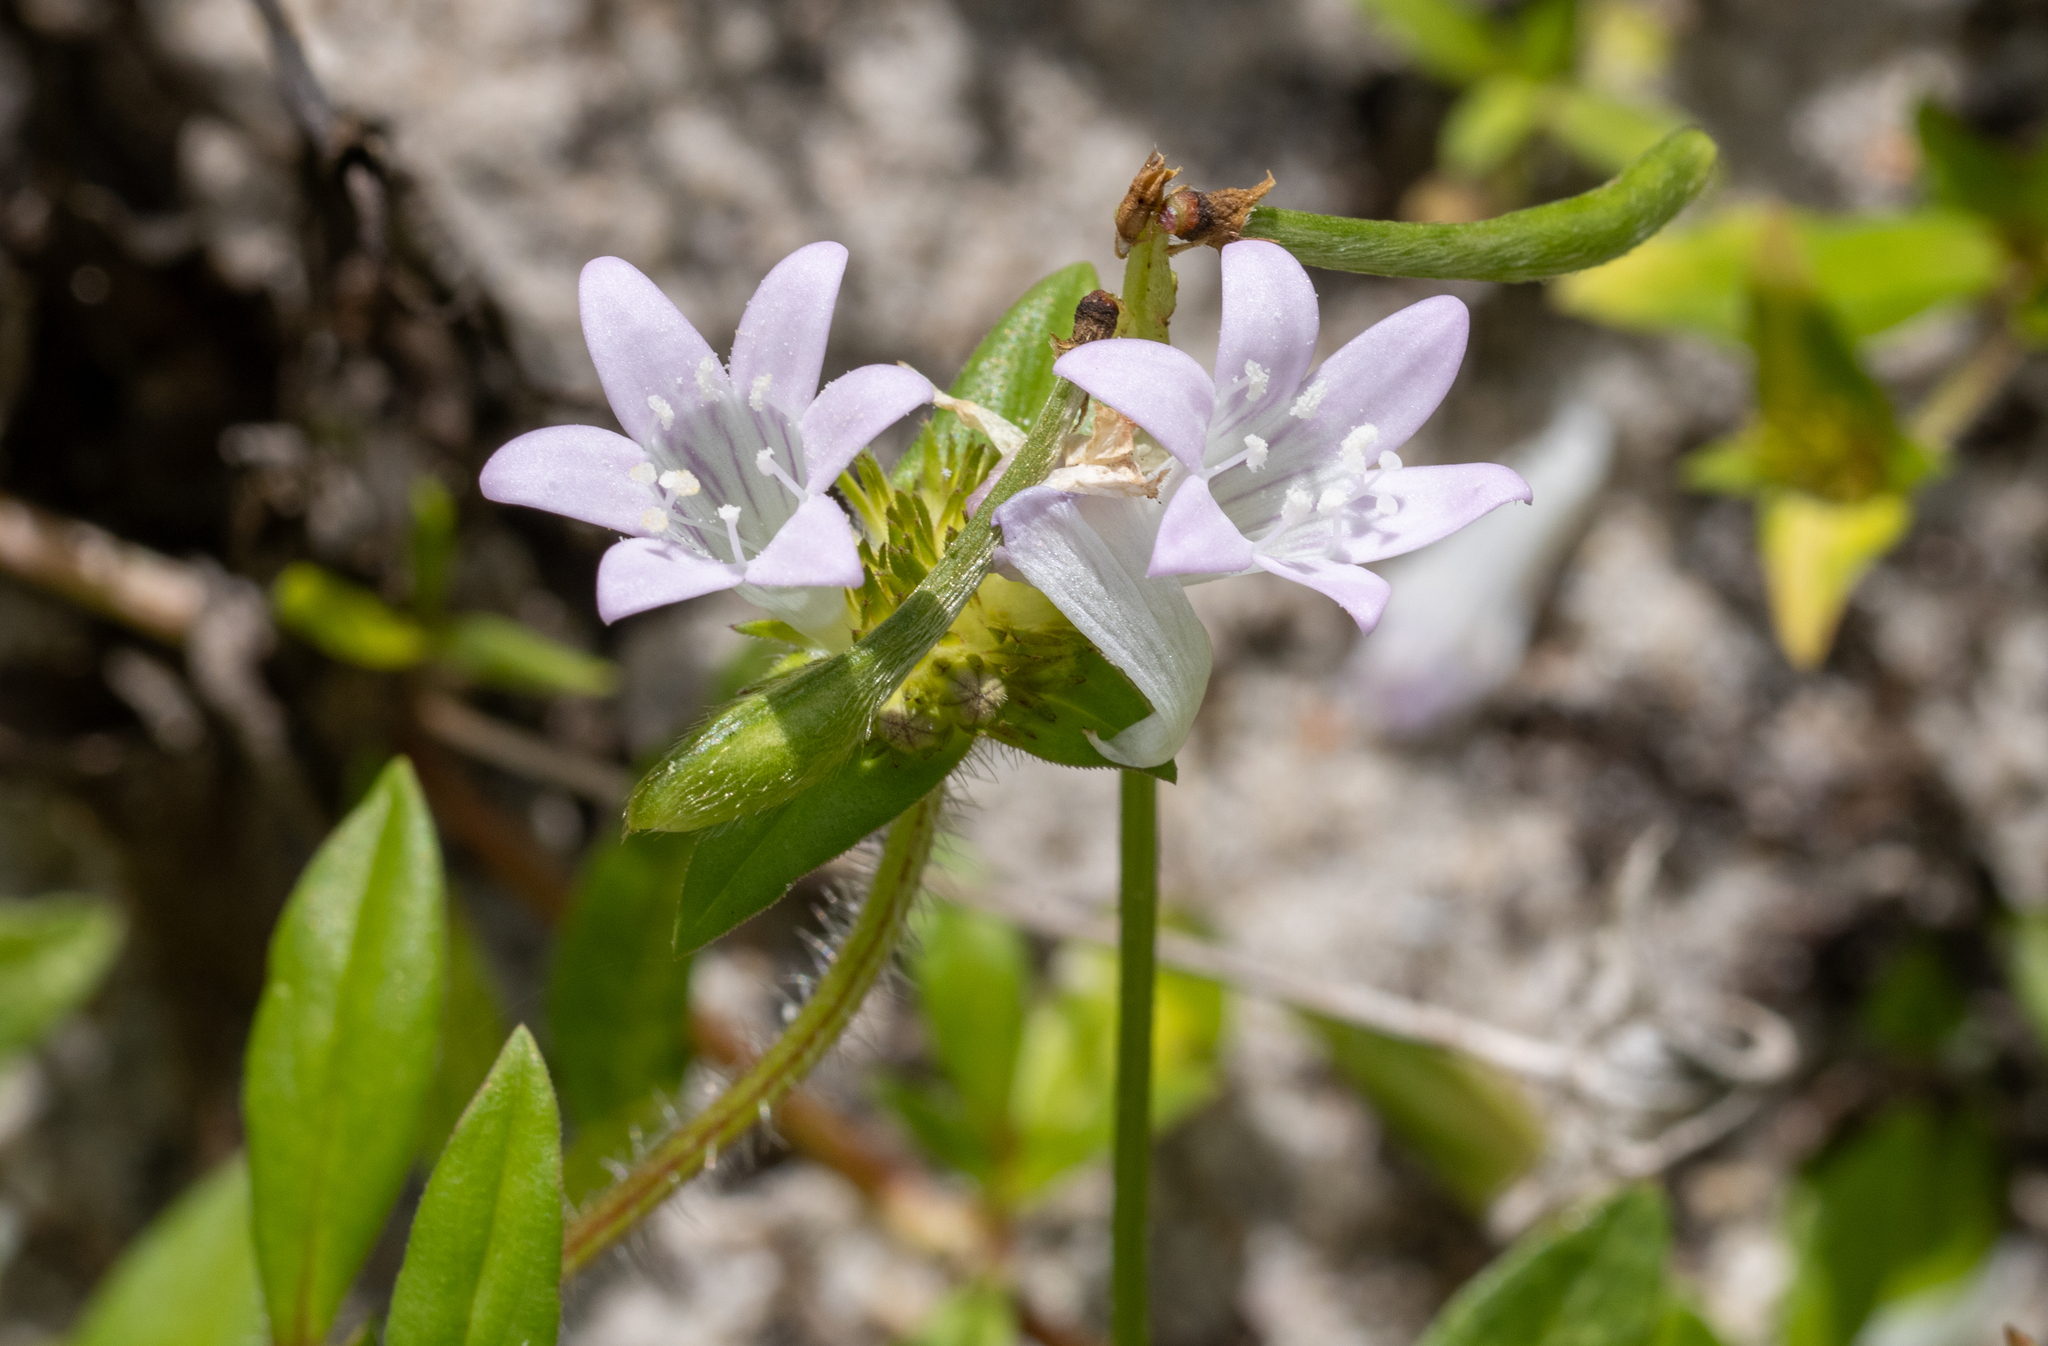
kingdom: Plantae
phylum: Tracheophyta
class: Magnoliopsida
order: Gentianales
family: Rubiaceae
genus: Richardia
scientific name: Richardia grandiflora
